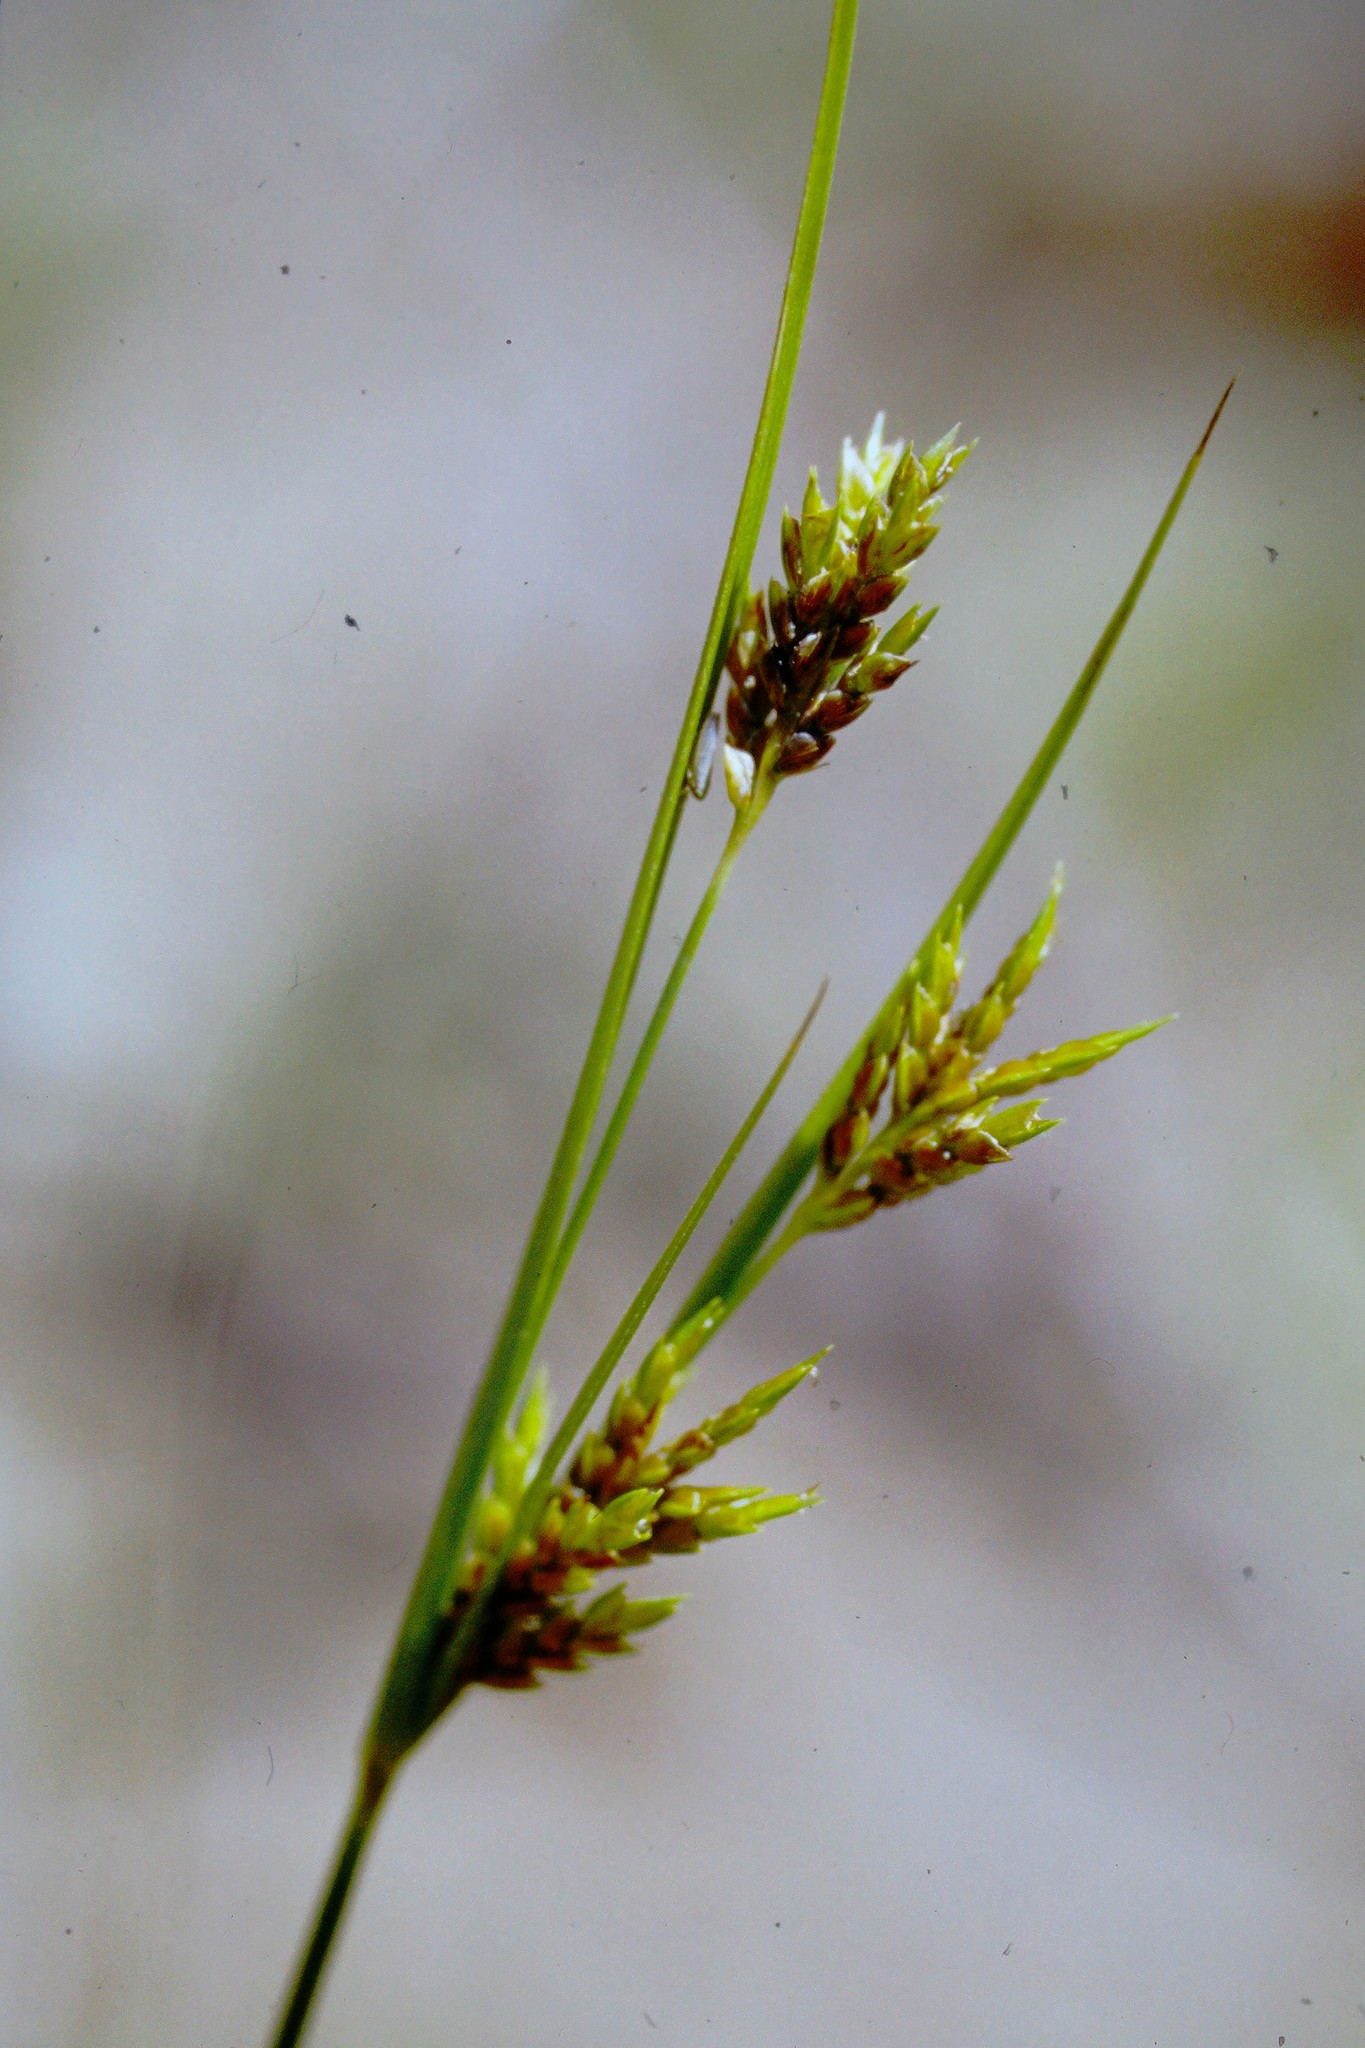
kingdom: Plantae
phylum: Tracheophyta
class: Liliopsida
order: Poales
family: Cyperaceae
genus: Cyperus
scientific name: Cyperus schweinitzii
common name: Schweinitz's cyperus
